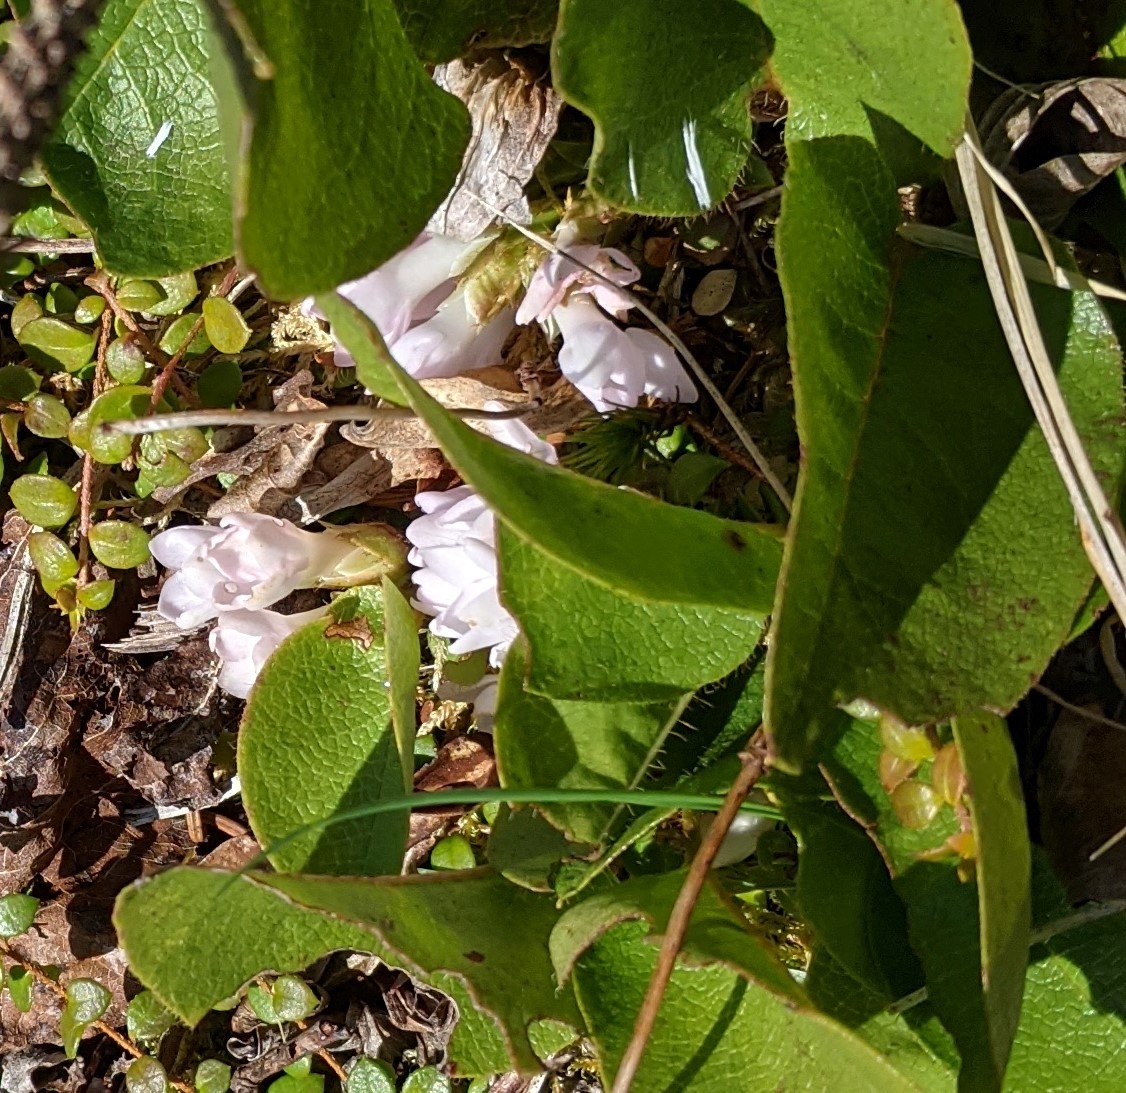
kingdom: Plantae
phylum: Tracheophyta
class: Magnoliopsida
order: Ericales
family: Ericaceae
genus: Epigaea
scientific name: Epigaea repens
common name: Gravelroot
